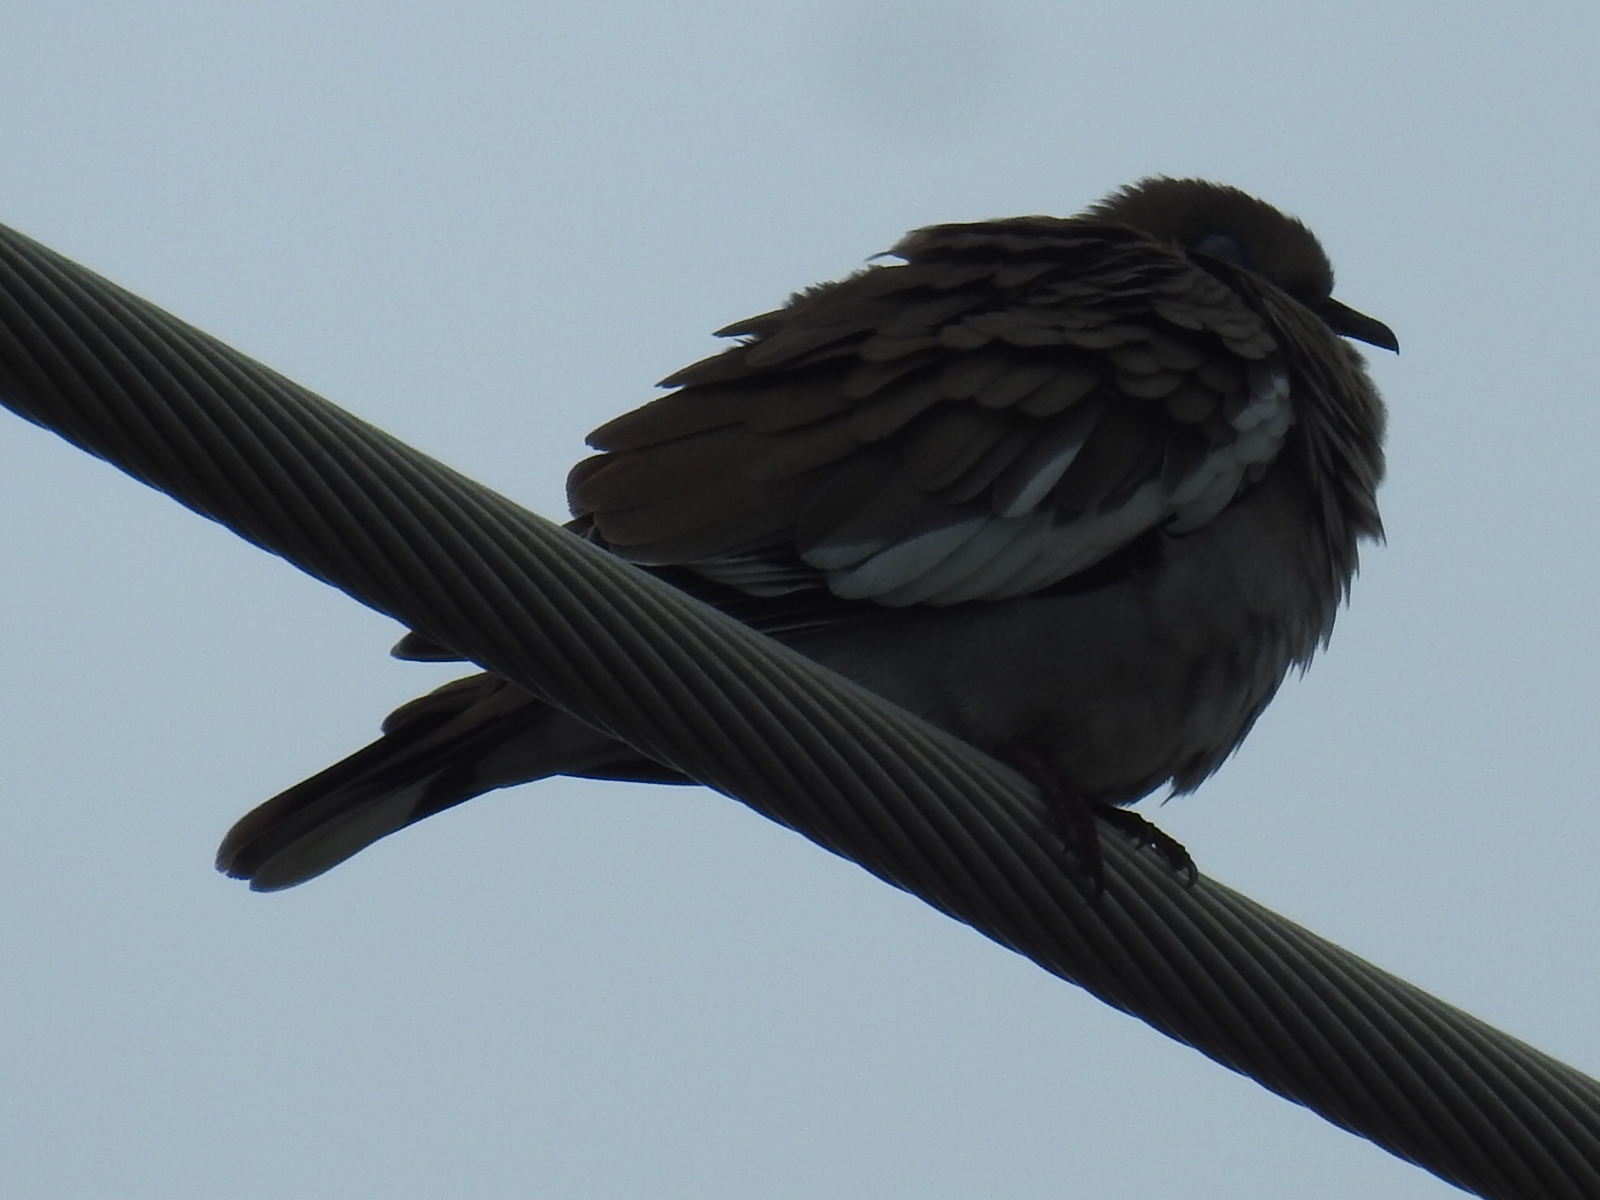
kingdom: Animalia
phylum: Chordata
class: Aves
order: Columbiformes
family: Columbidae
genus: Zenaida
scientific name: Zenaida asiatica
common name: White-winged dove
